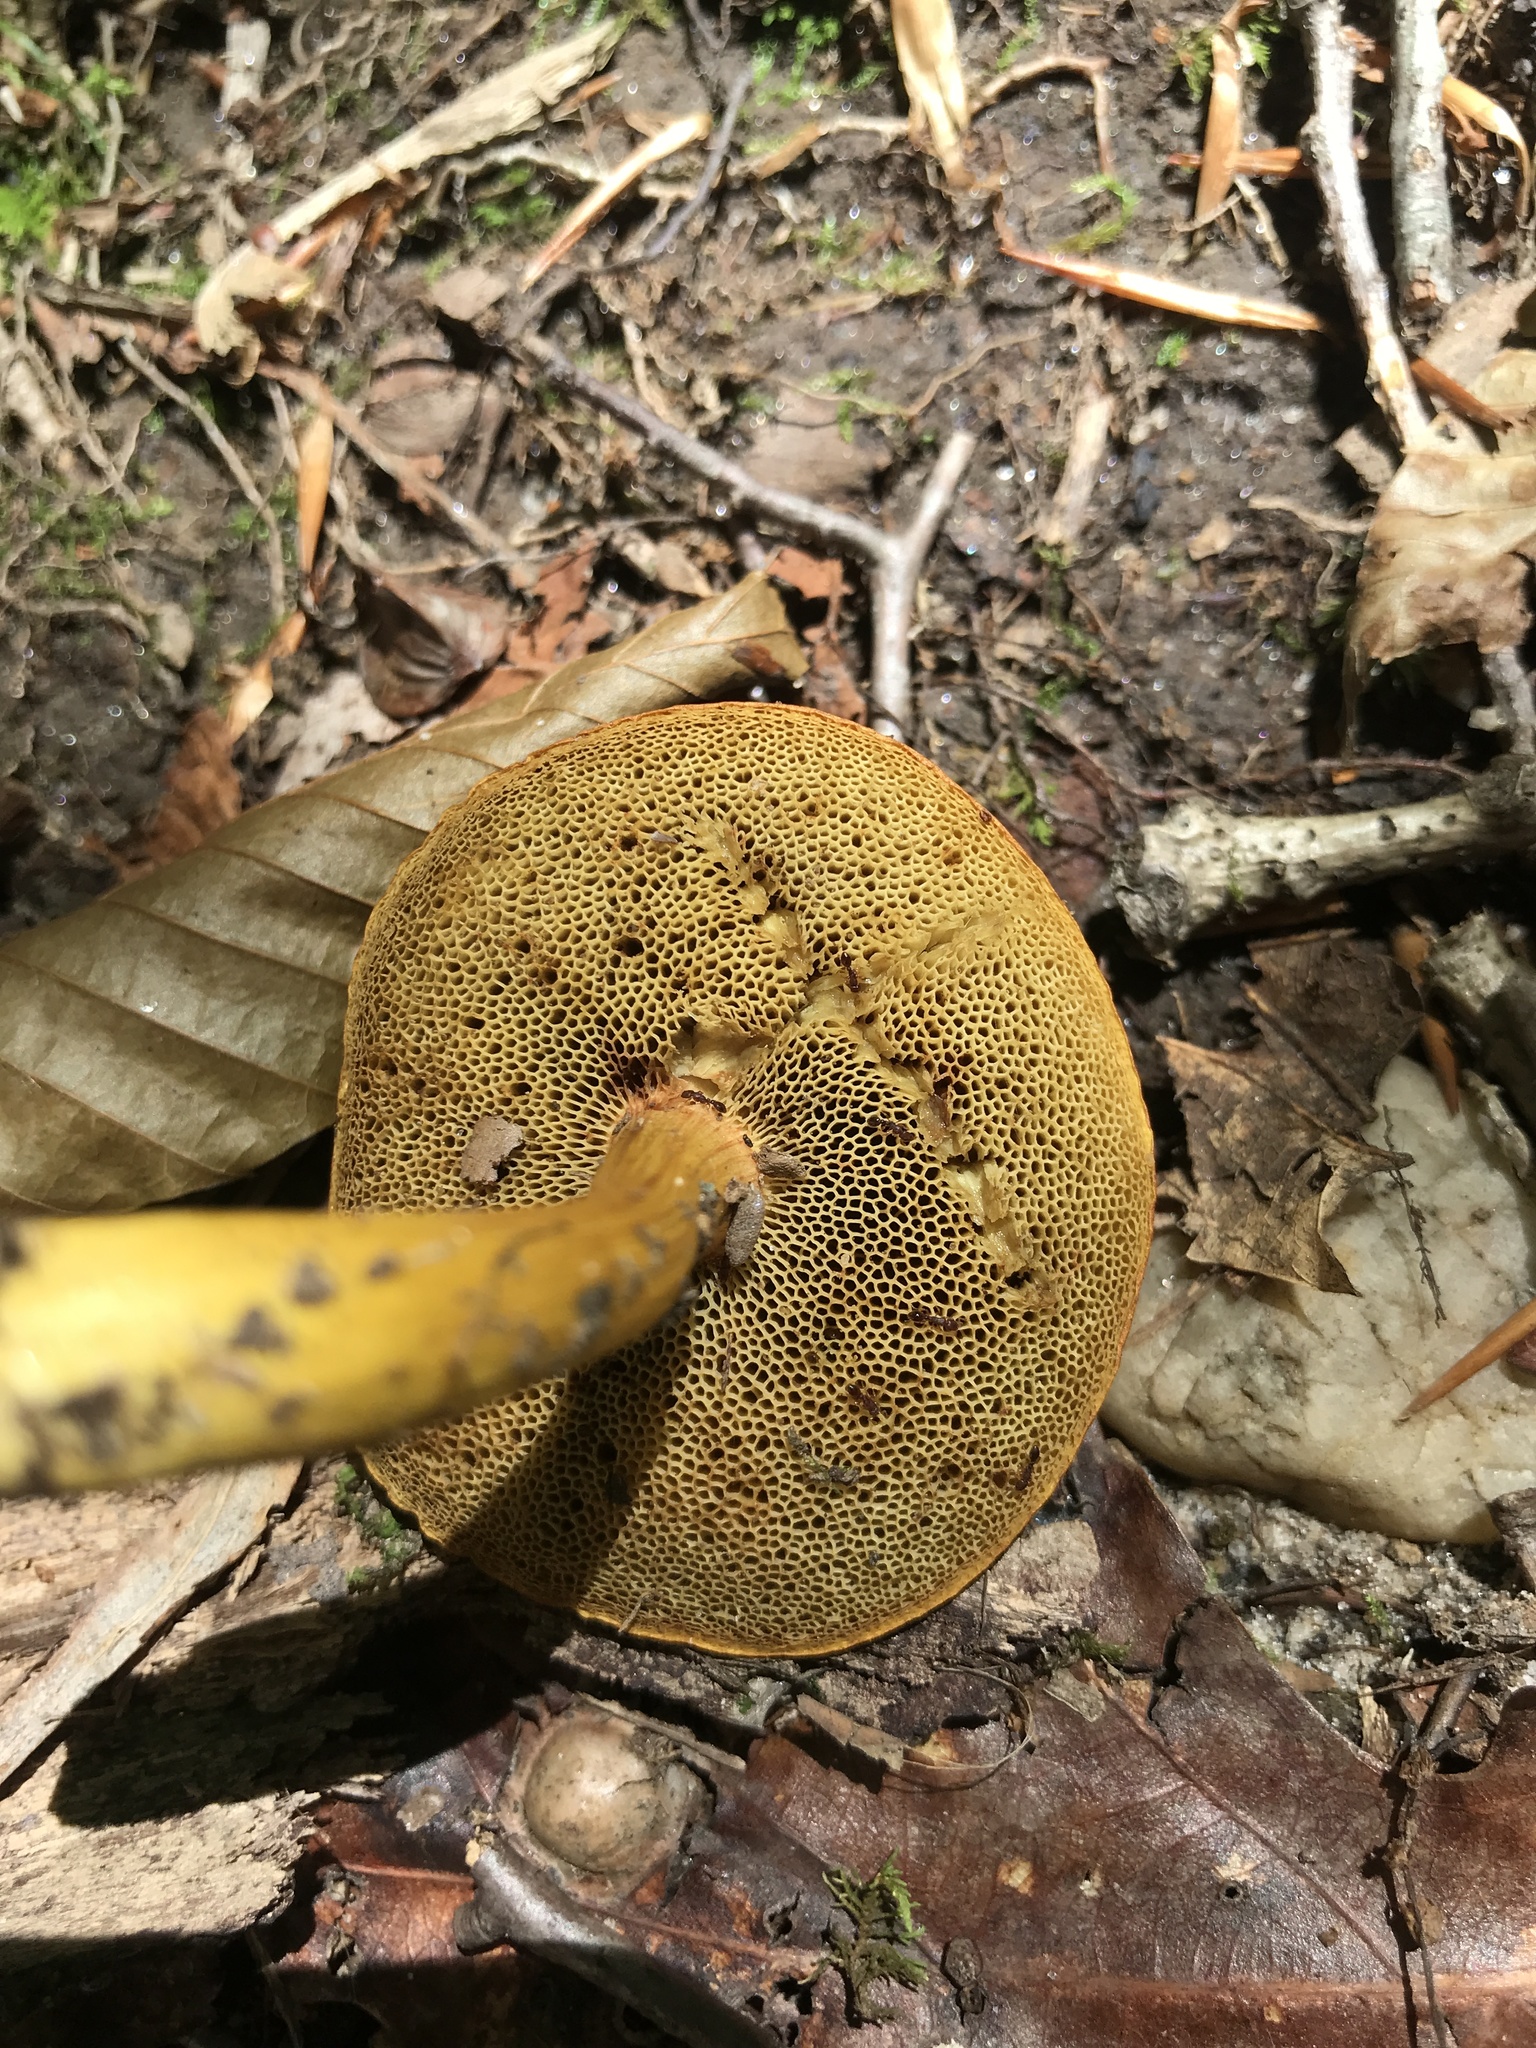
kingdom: Fungi
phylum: Basidiomycota
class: Agaricomycetes
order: Boletales
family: Boletaceae
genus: Aureoboletus
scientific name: Aureoboletus roxanae
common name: Roxane's bolete
